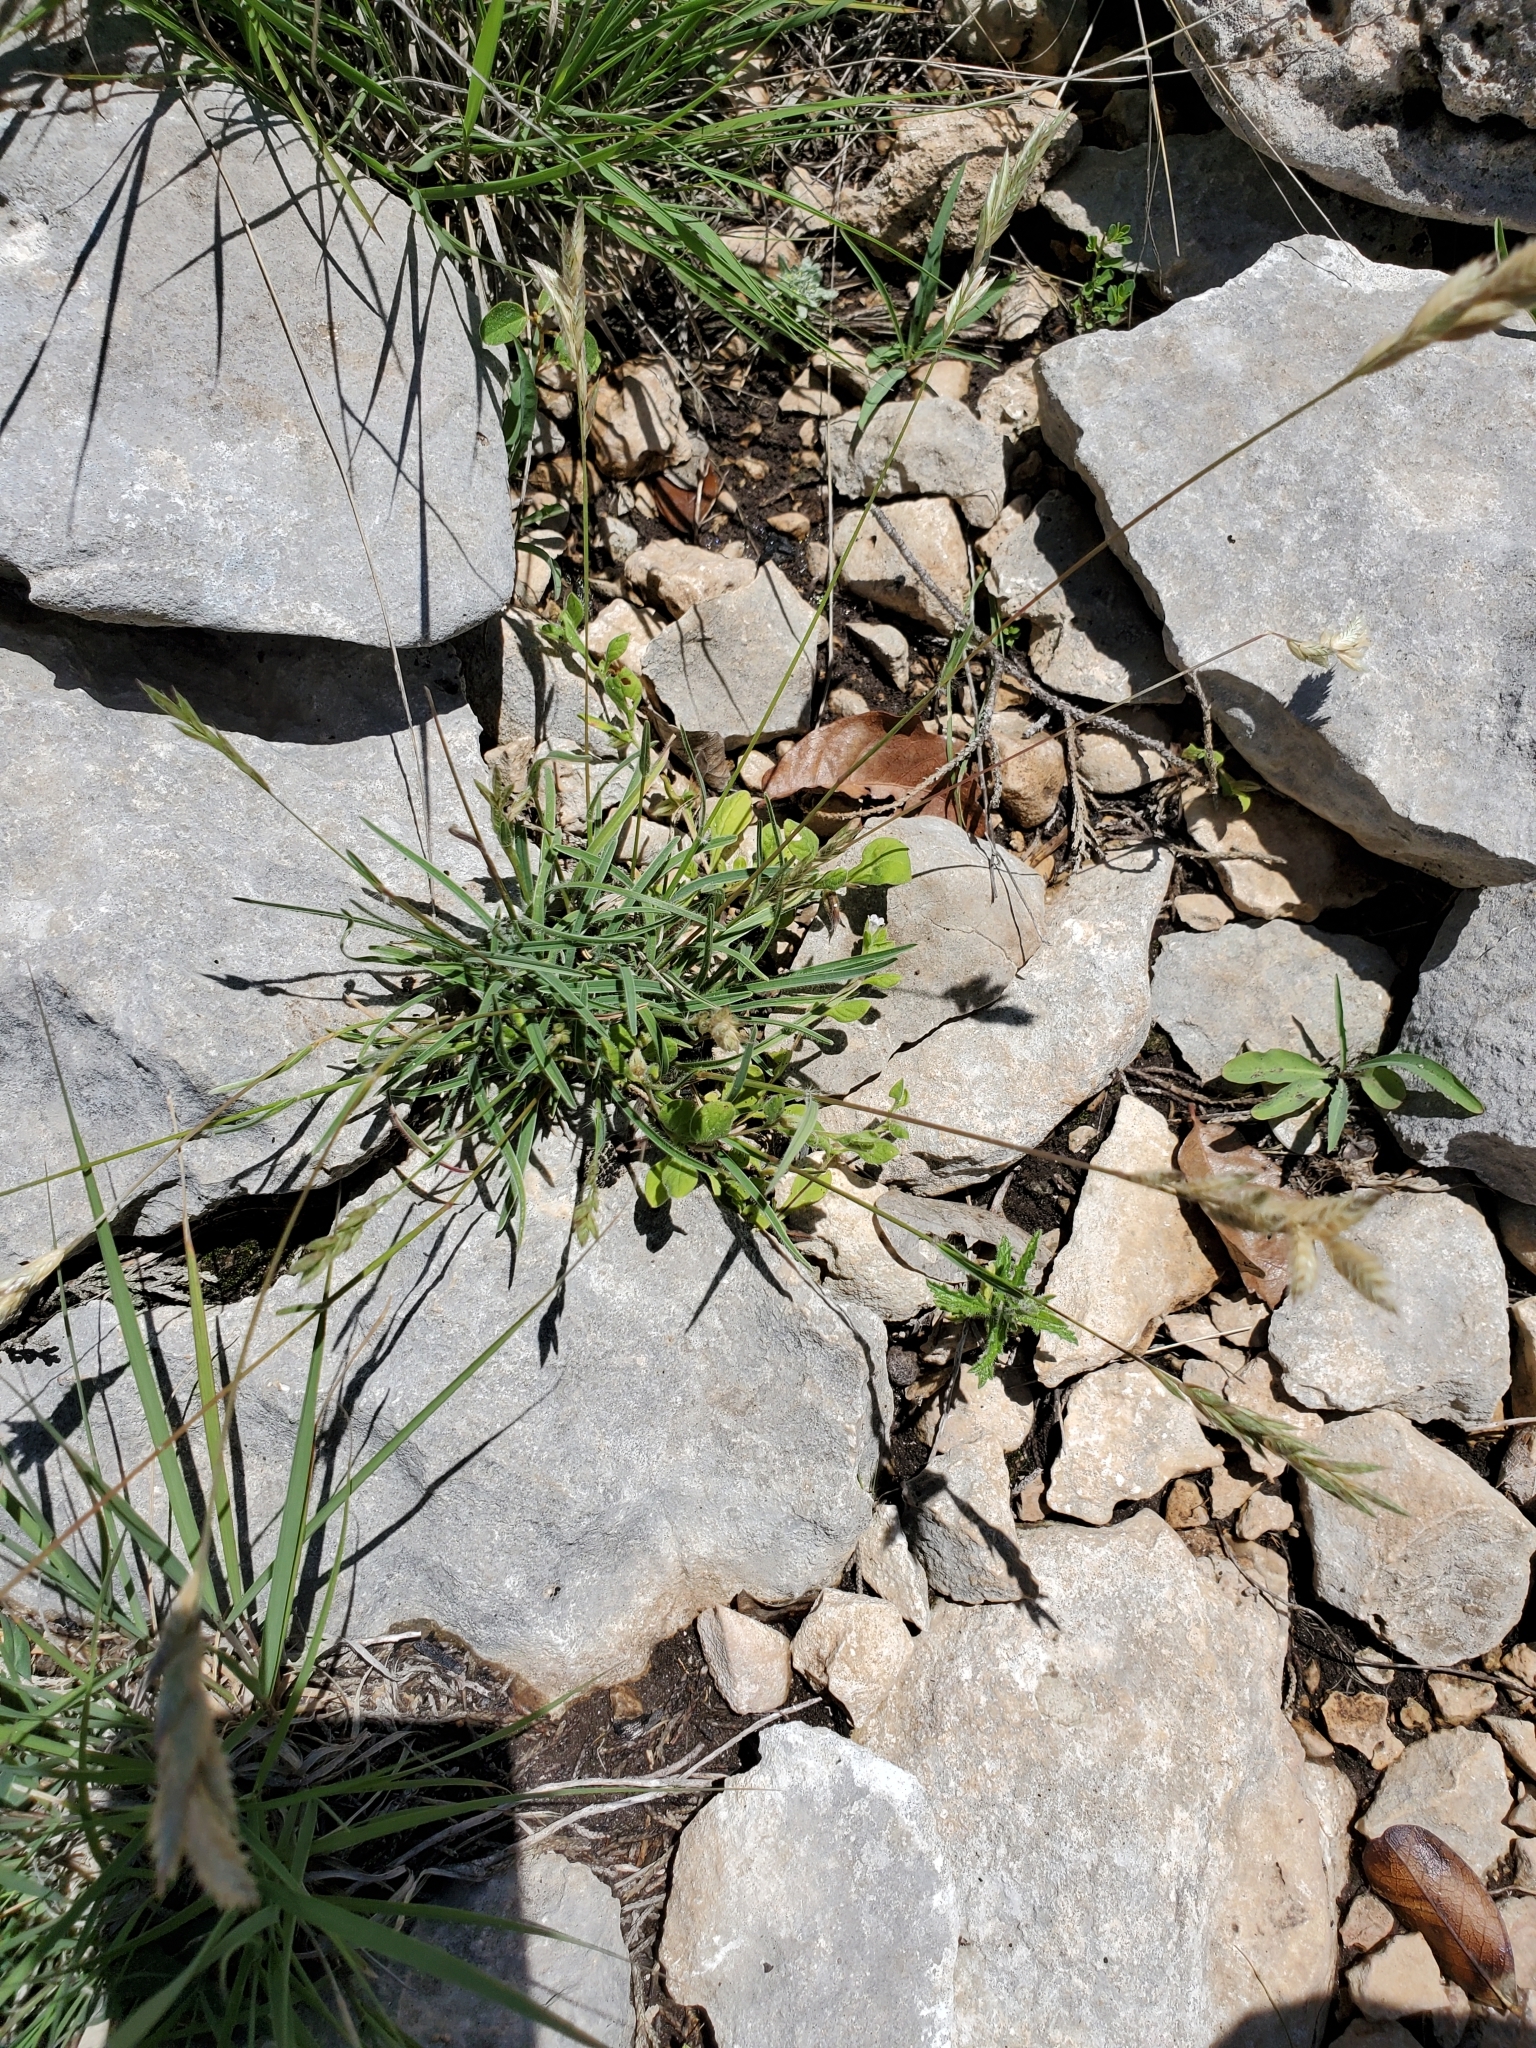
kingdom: Plantae
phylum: Tracheophyta
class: Liliopsida
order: Poales
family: Poaceae
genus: Erioneuron
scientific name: Erioneuron pilosum
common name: Hairy woolly grass
